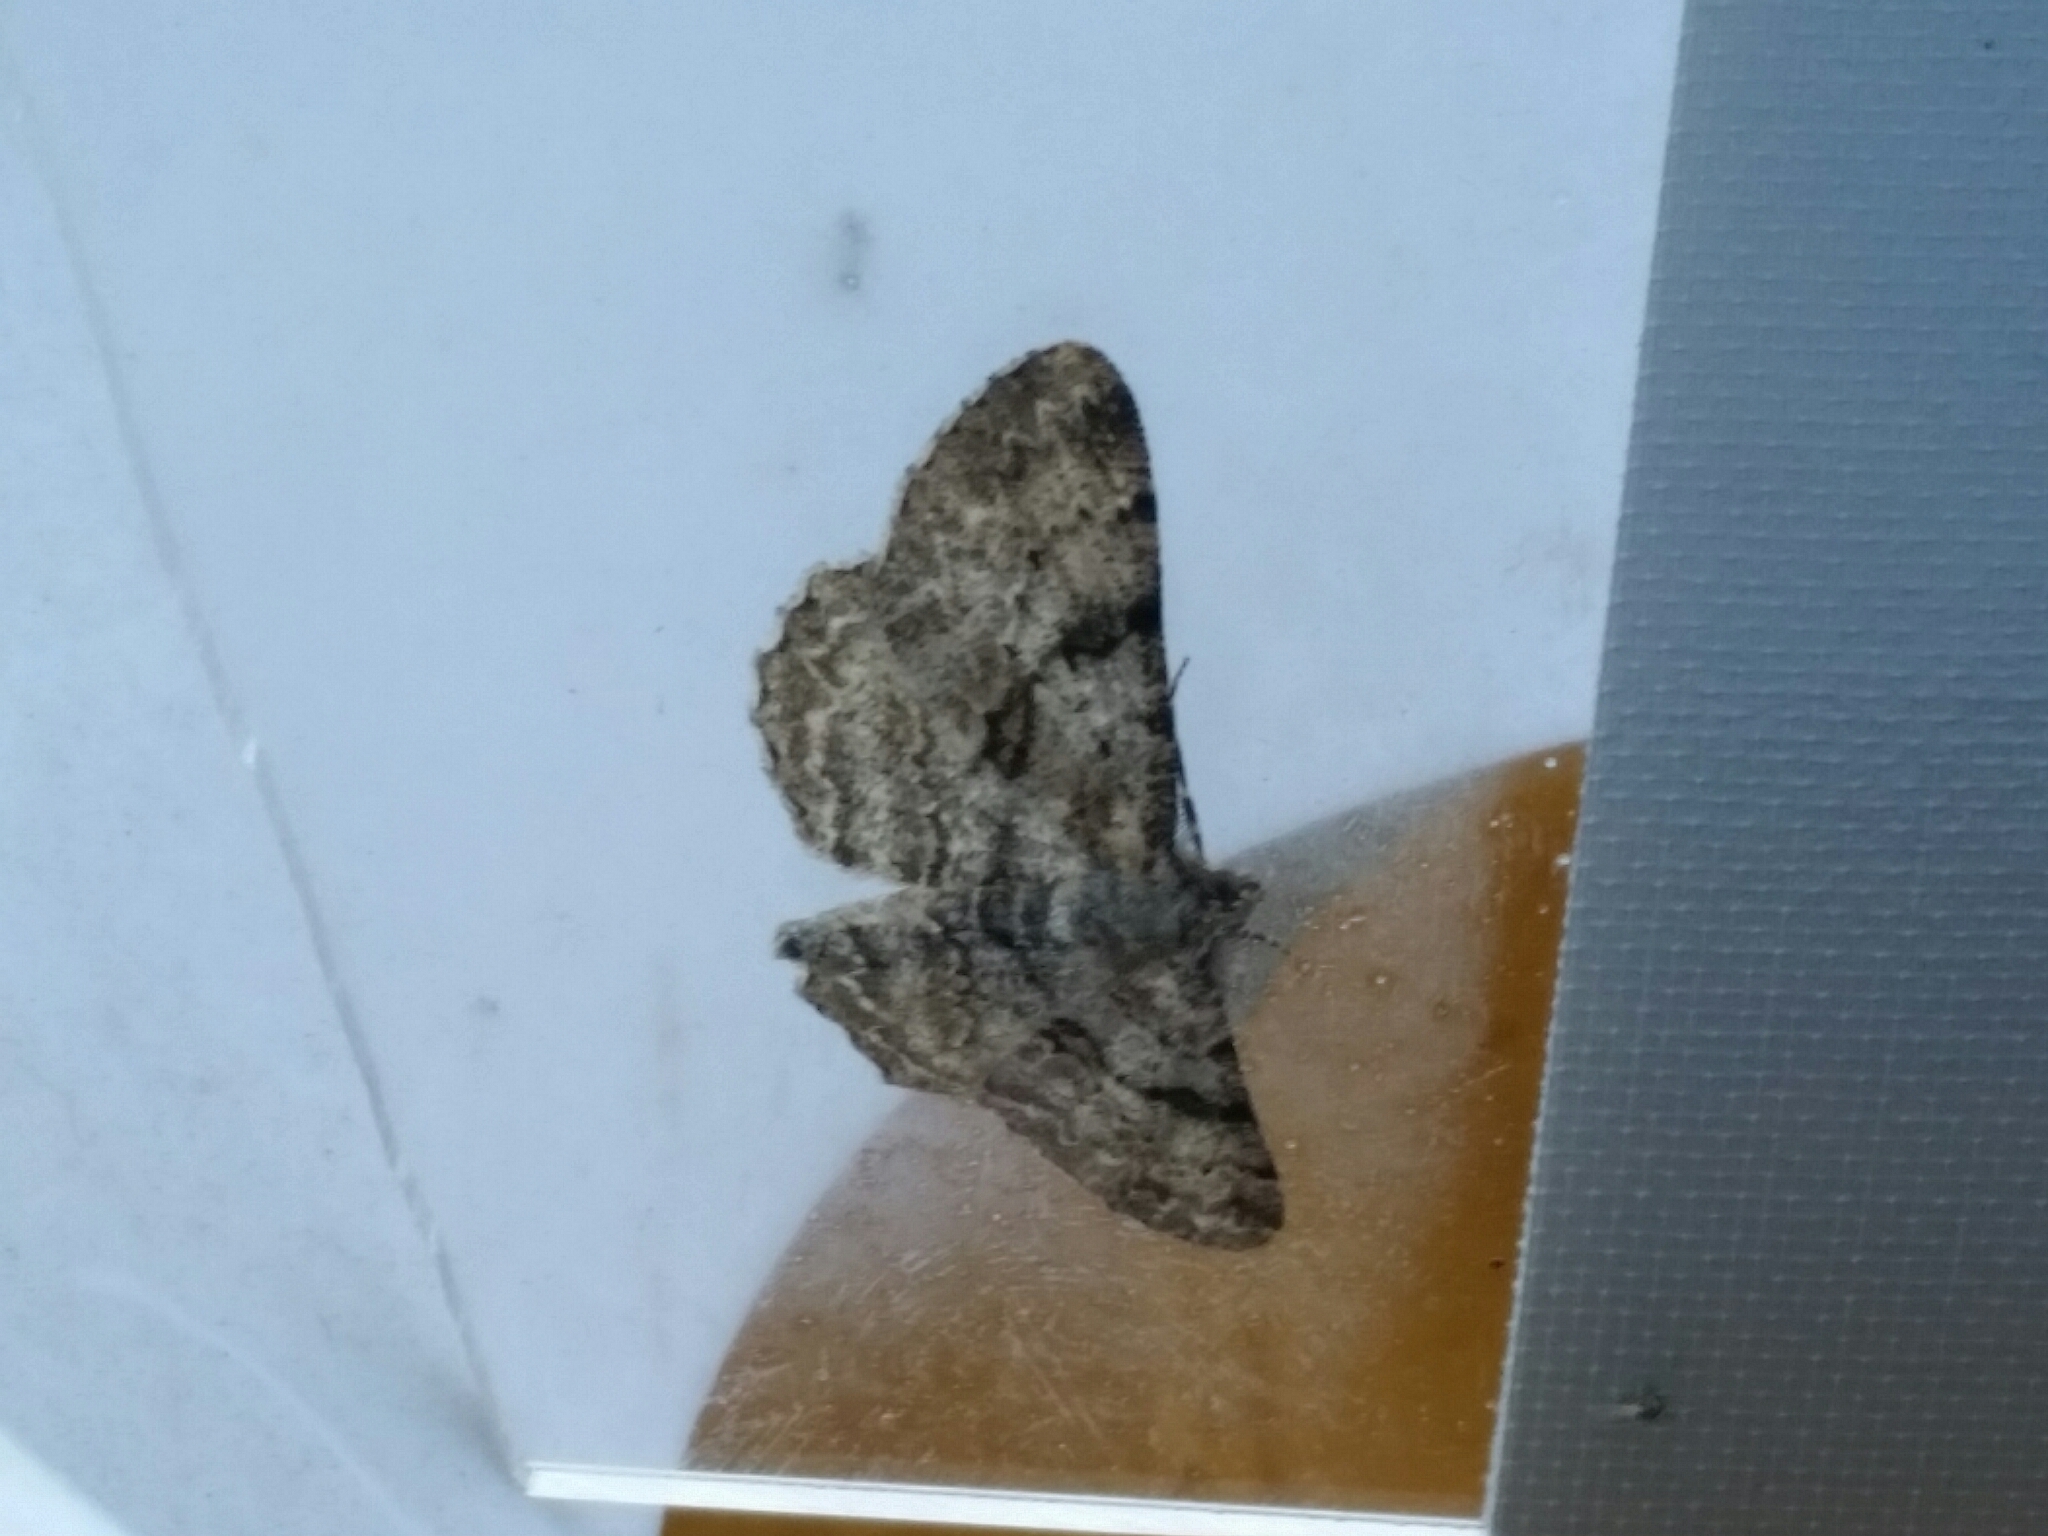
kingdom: Animalia
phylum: Arthropoda
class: Insecta
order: Lepidoptera
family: Geometridae
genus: Peribatodes
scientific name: Peribatodes rhomboidaria
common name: Willow beauty
